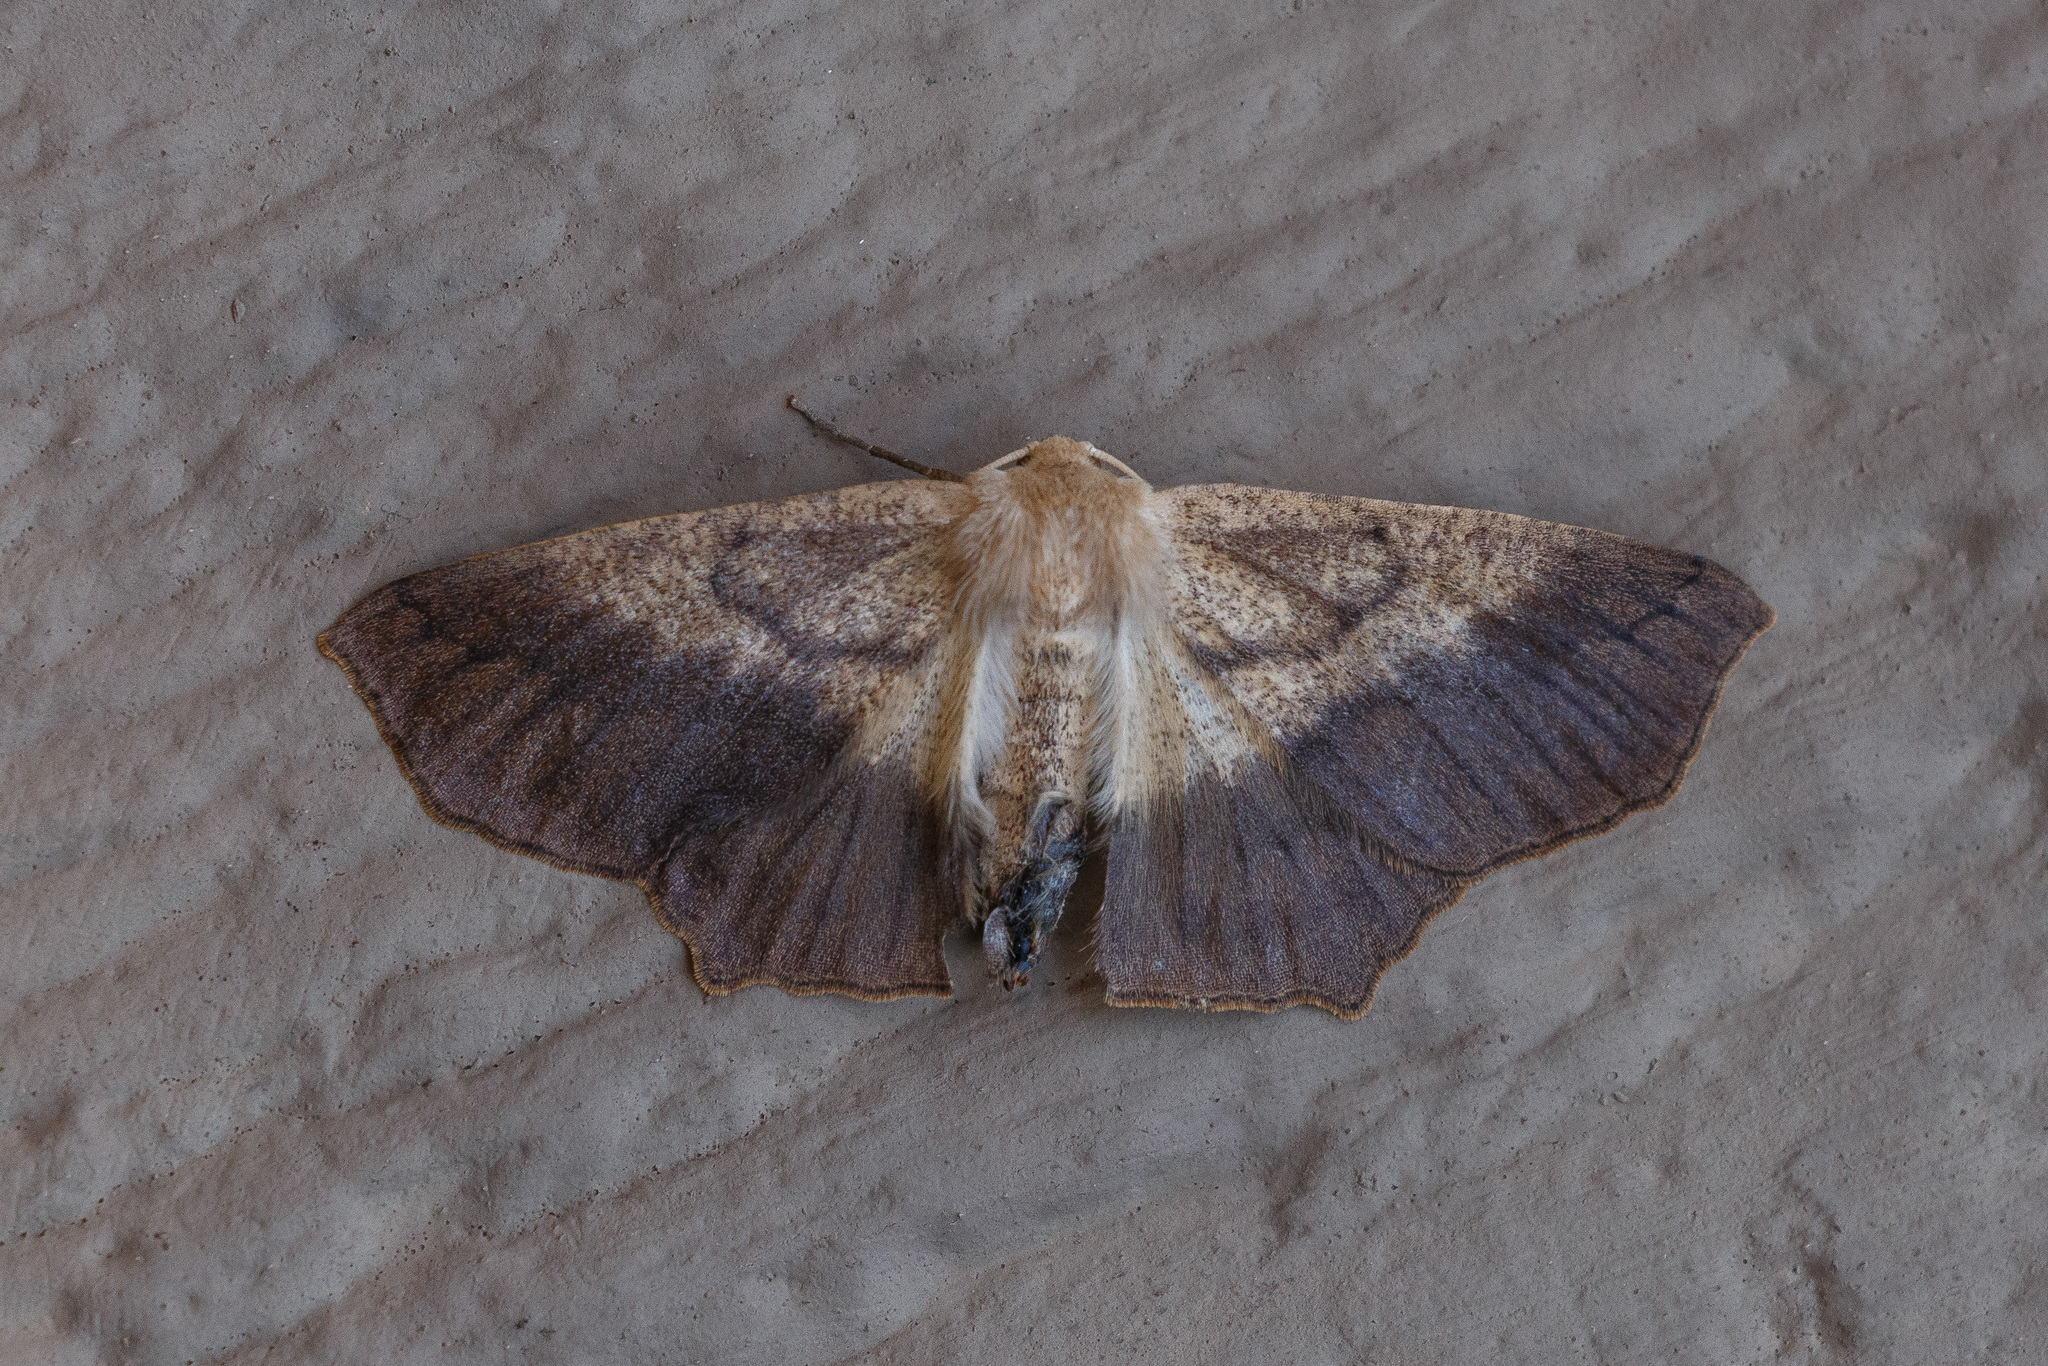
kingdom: Animalia
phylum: Arthropoda
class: Insecta
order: Lepidoptera
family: Geometridae
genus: Sabulodes
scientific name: Sabulodes aegrotata
